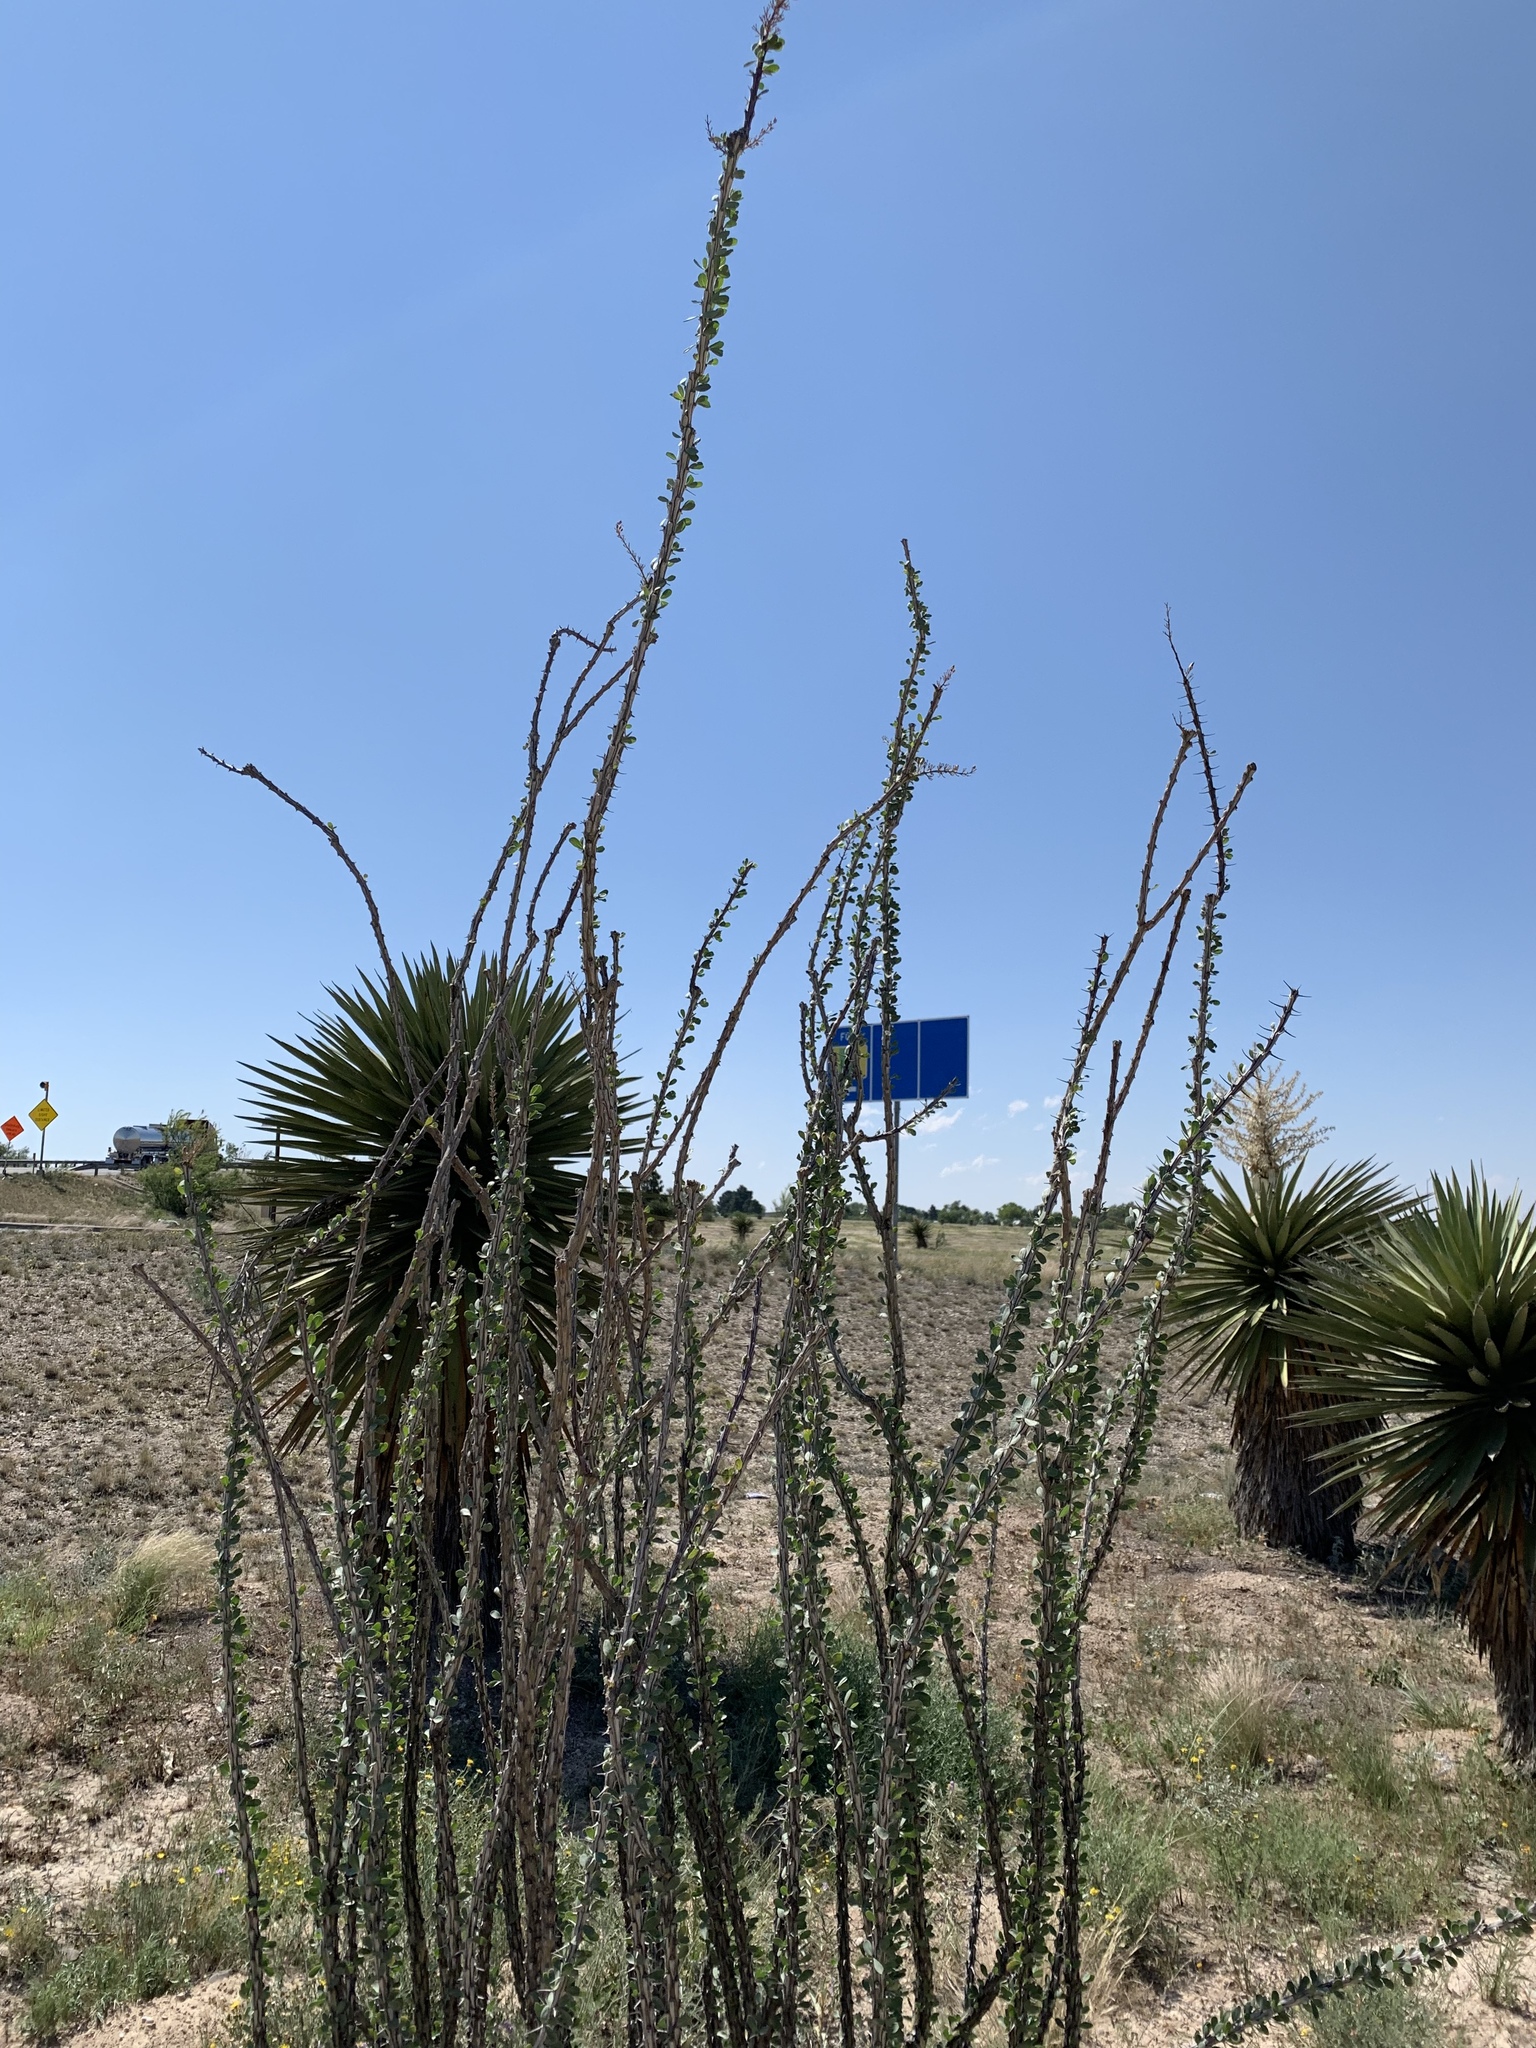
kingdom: Plantae
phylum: Tracheophyta
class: Magnoliopsida
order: Ericales
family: Fouquieriaceae
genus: Fouquieria
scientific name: Fouquieria splendens
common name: Vine-cactus
